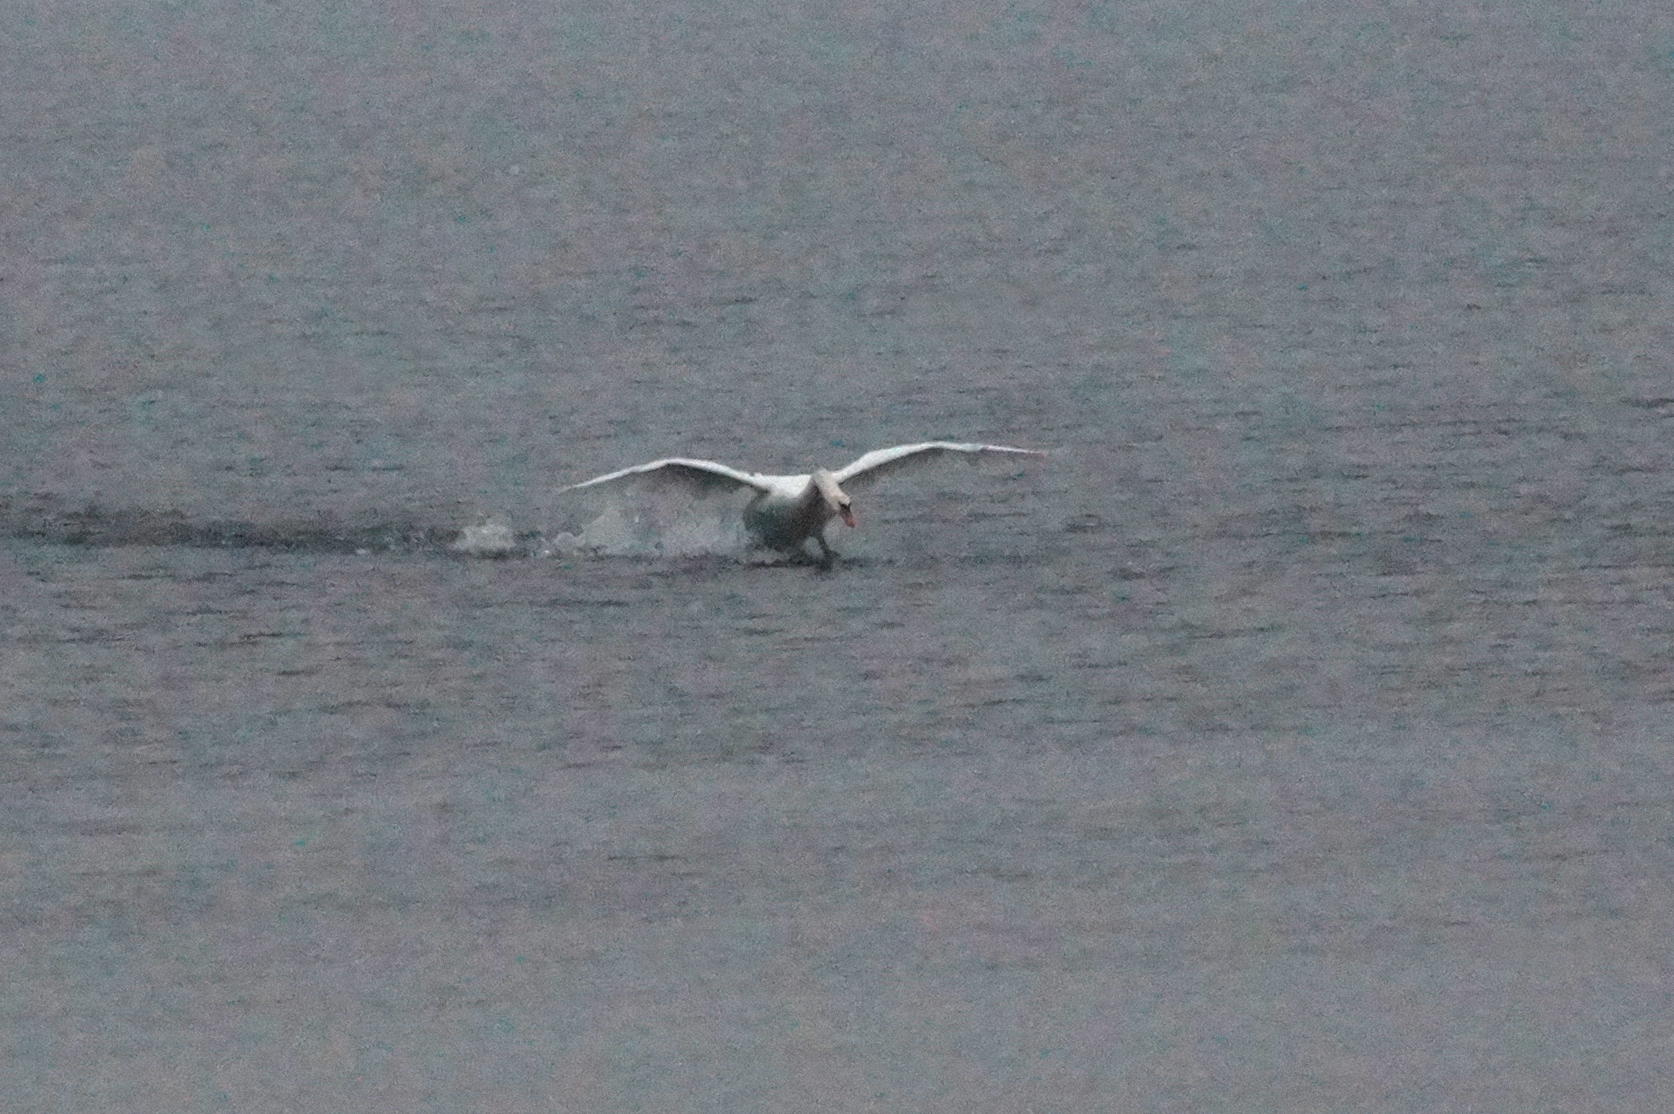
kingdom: Animalia
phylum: Chordata
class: Aves
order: Anseriformes
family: Anatidae
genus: Cygnus
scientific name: Cygnus olor
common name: Mute swan
